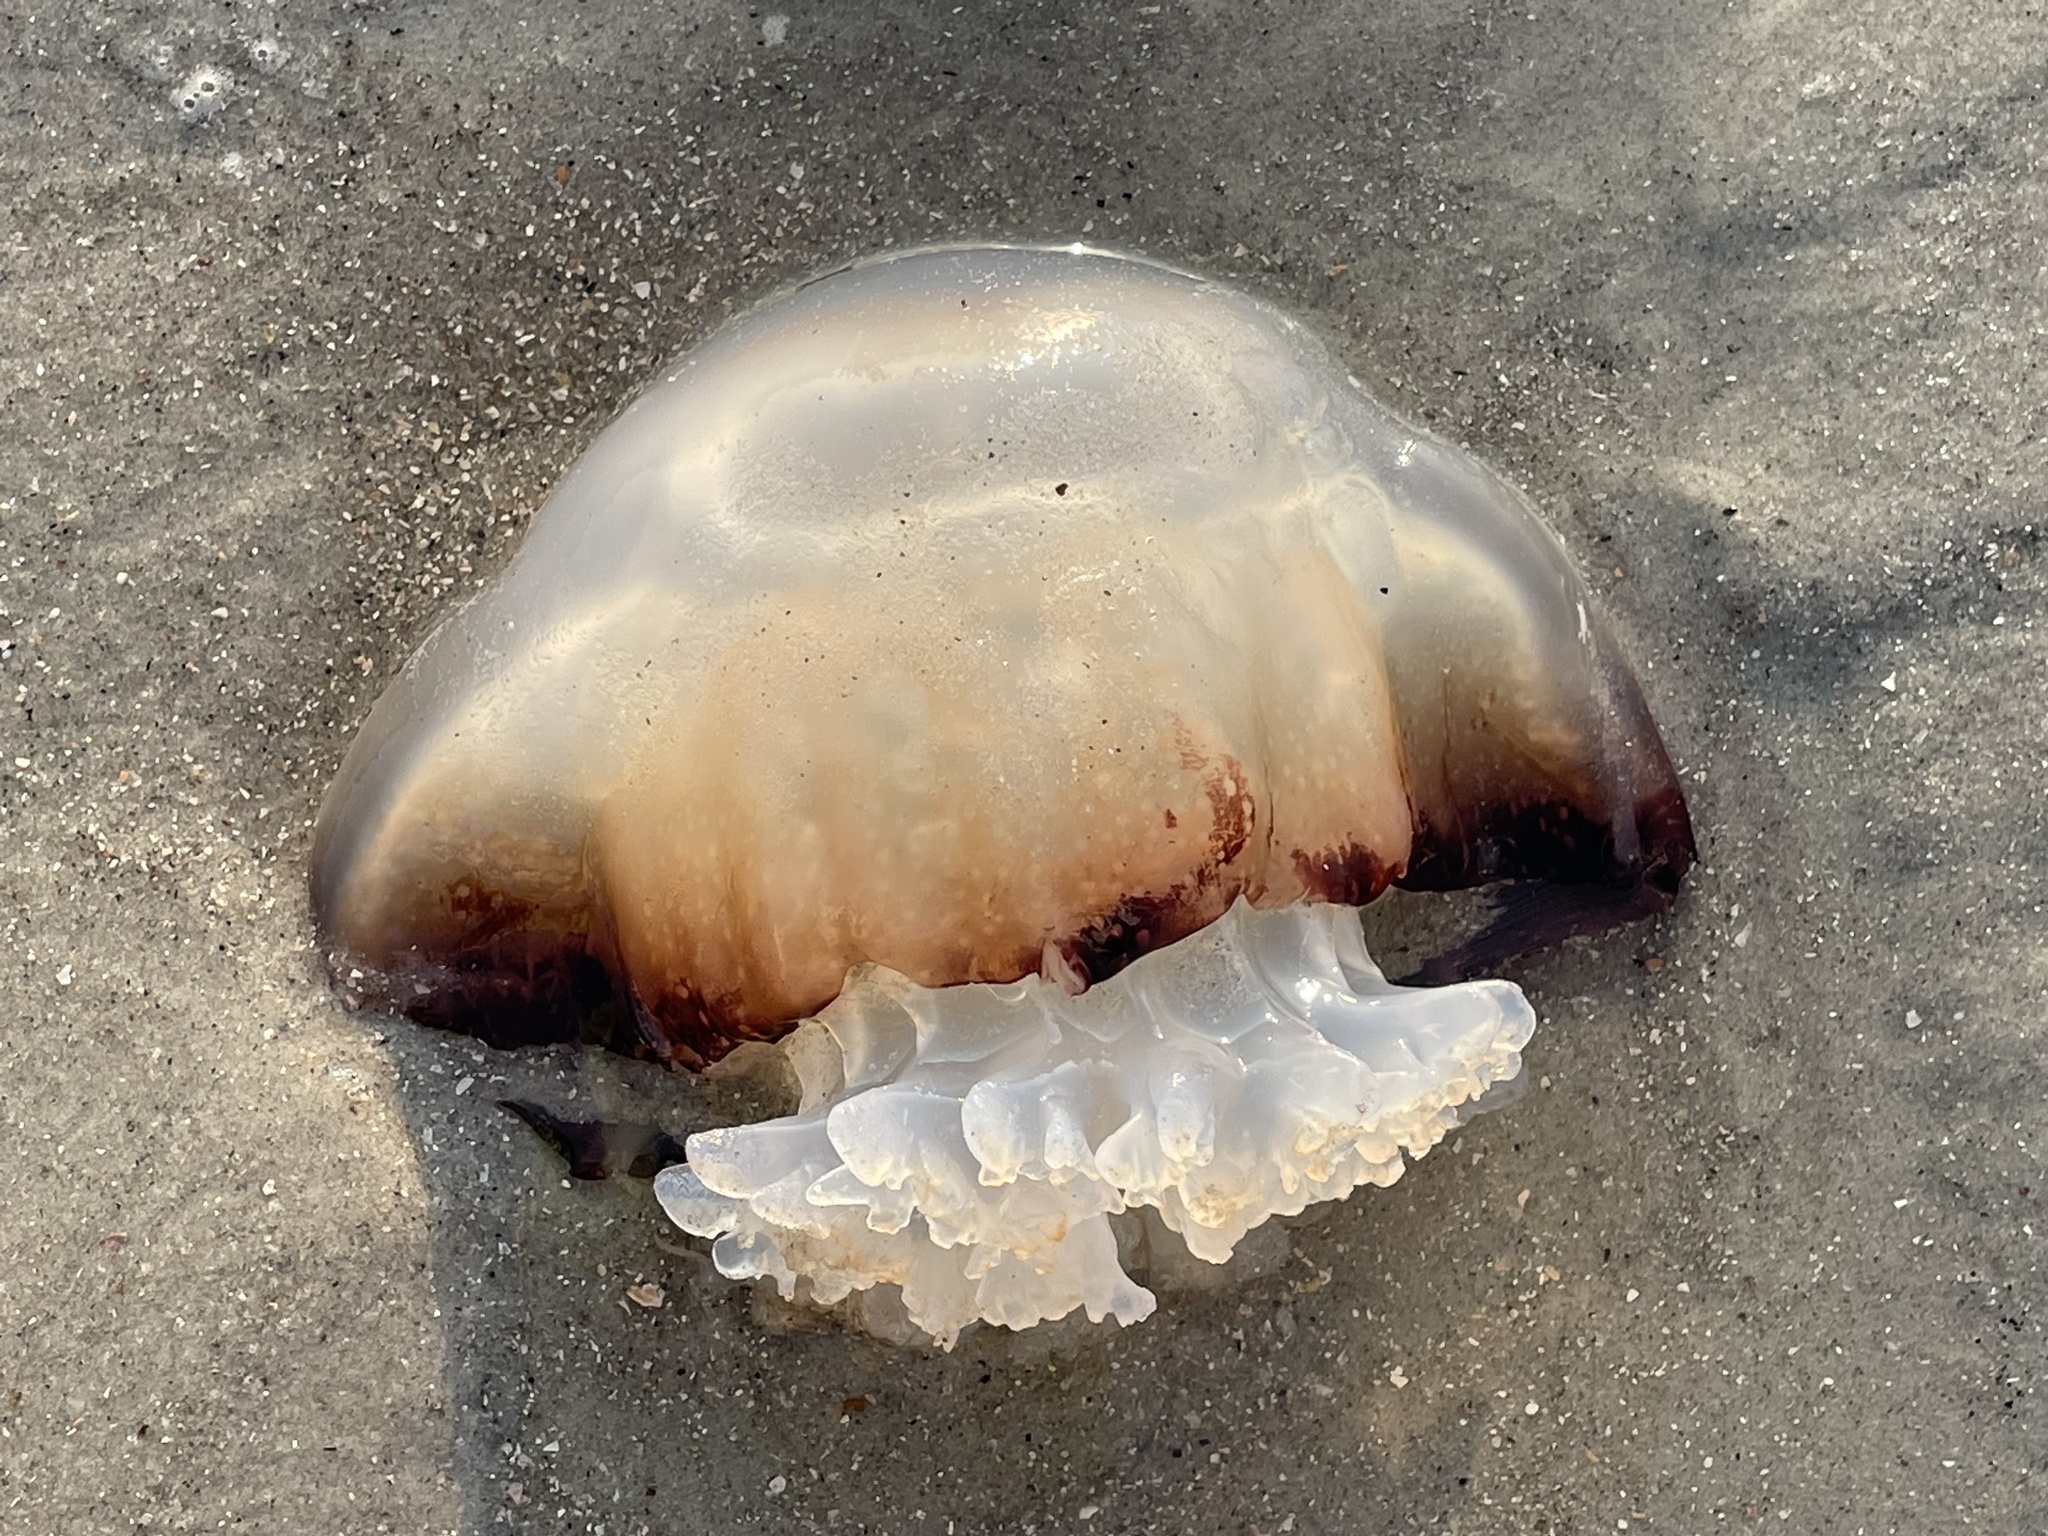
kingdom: Animalia
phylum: Cnidaria
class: Scyphozoa
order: Rhizostomeae
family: Stomolophidae
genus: Stomolophus
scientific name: Stomolophus meleagris
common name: Cabbagehead
